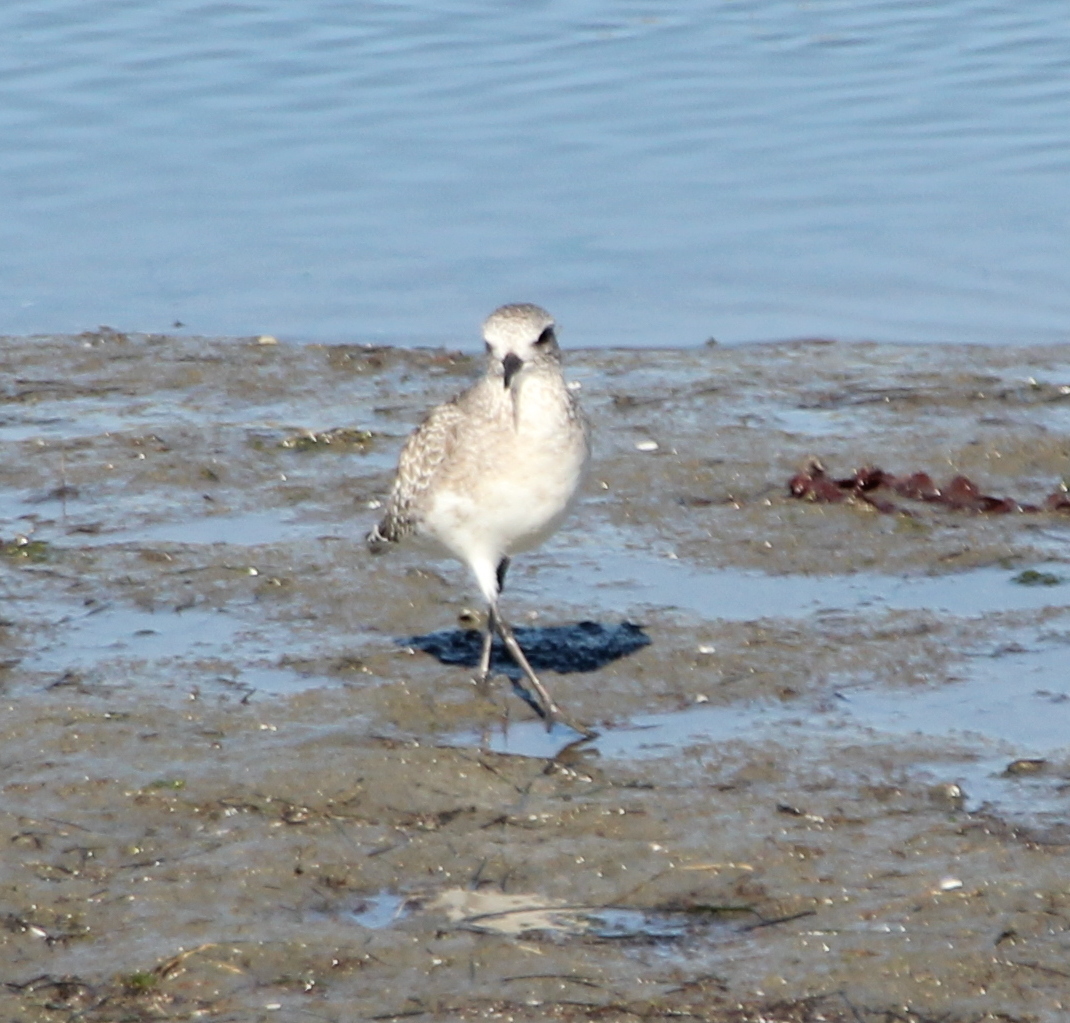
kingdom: Animalia
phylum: Chordata
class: Aves
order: Charadriiformes
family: Charadriidae
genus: Pluvialis
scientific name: Pluvialis squatarola
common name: Grey plover
